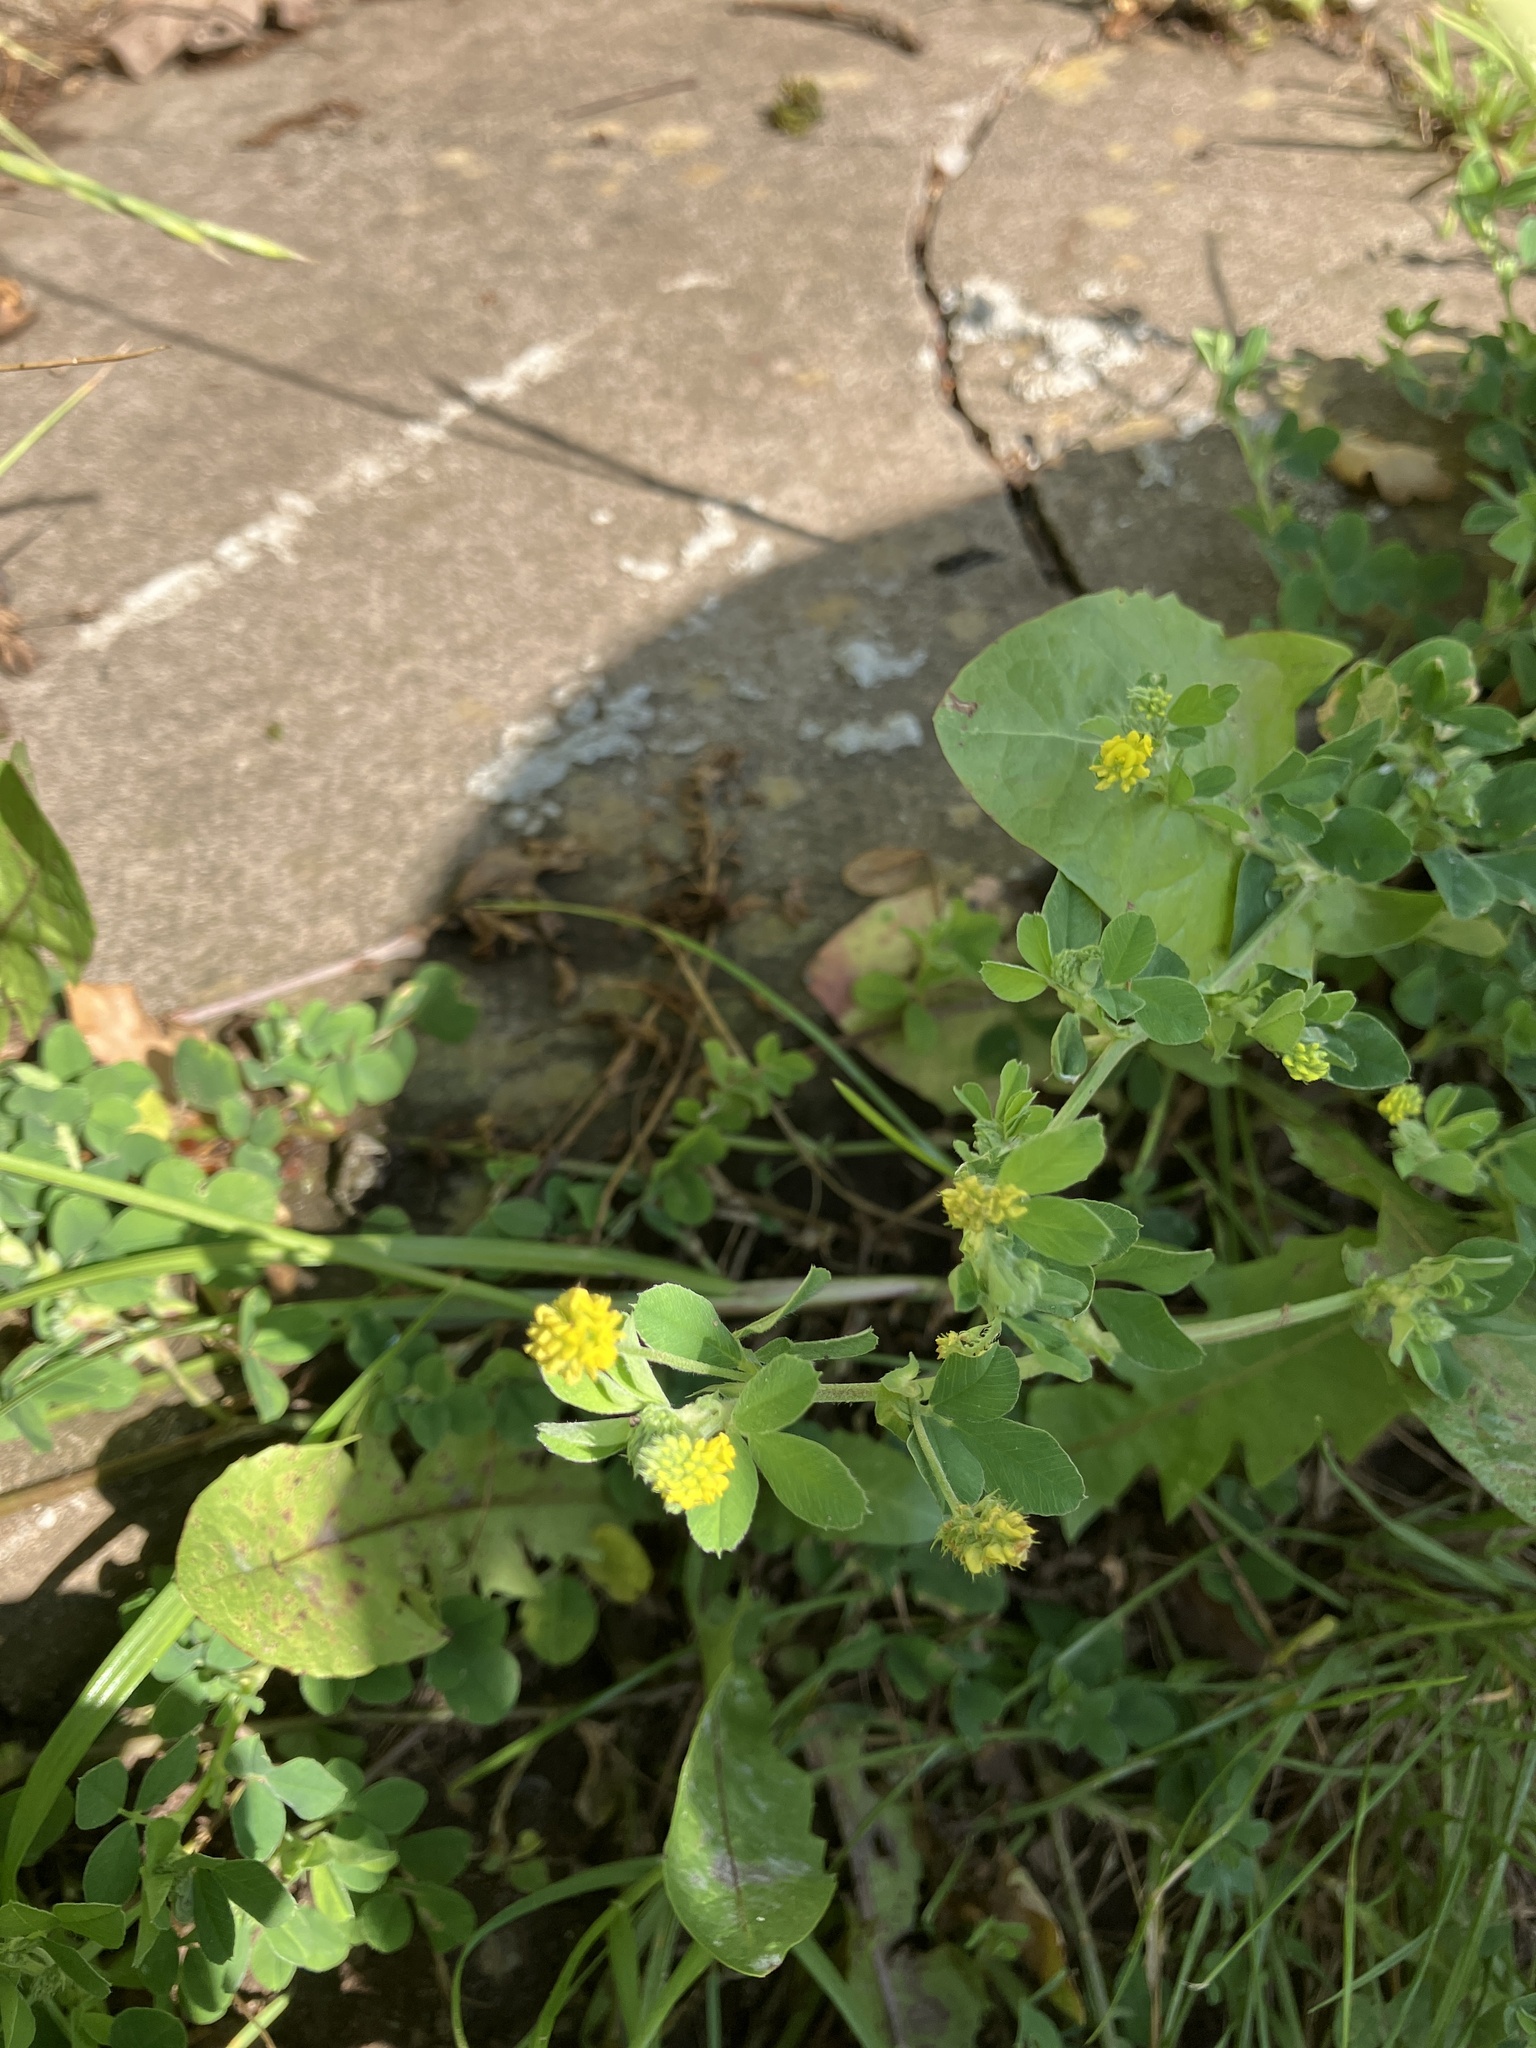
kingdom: Plantae
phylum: Tracheophyta
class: Magnoliopsida
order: Fabales
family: Fabaceae
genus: Medicago
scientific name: Medicago lupulina
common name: Black medick
